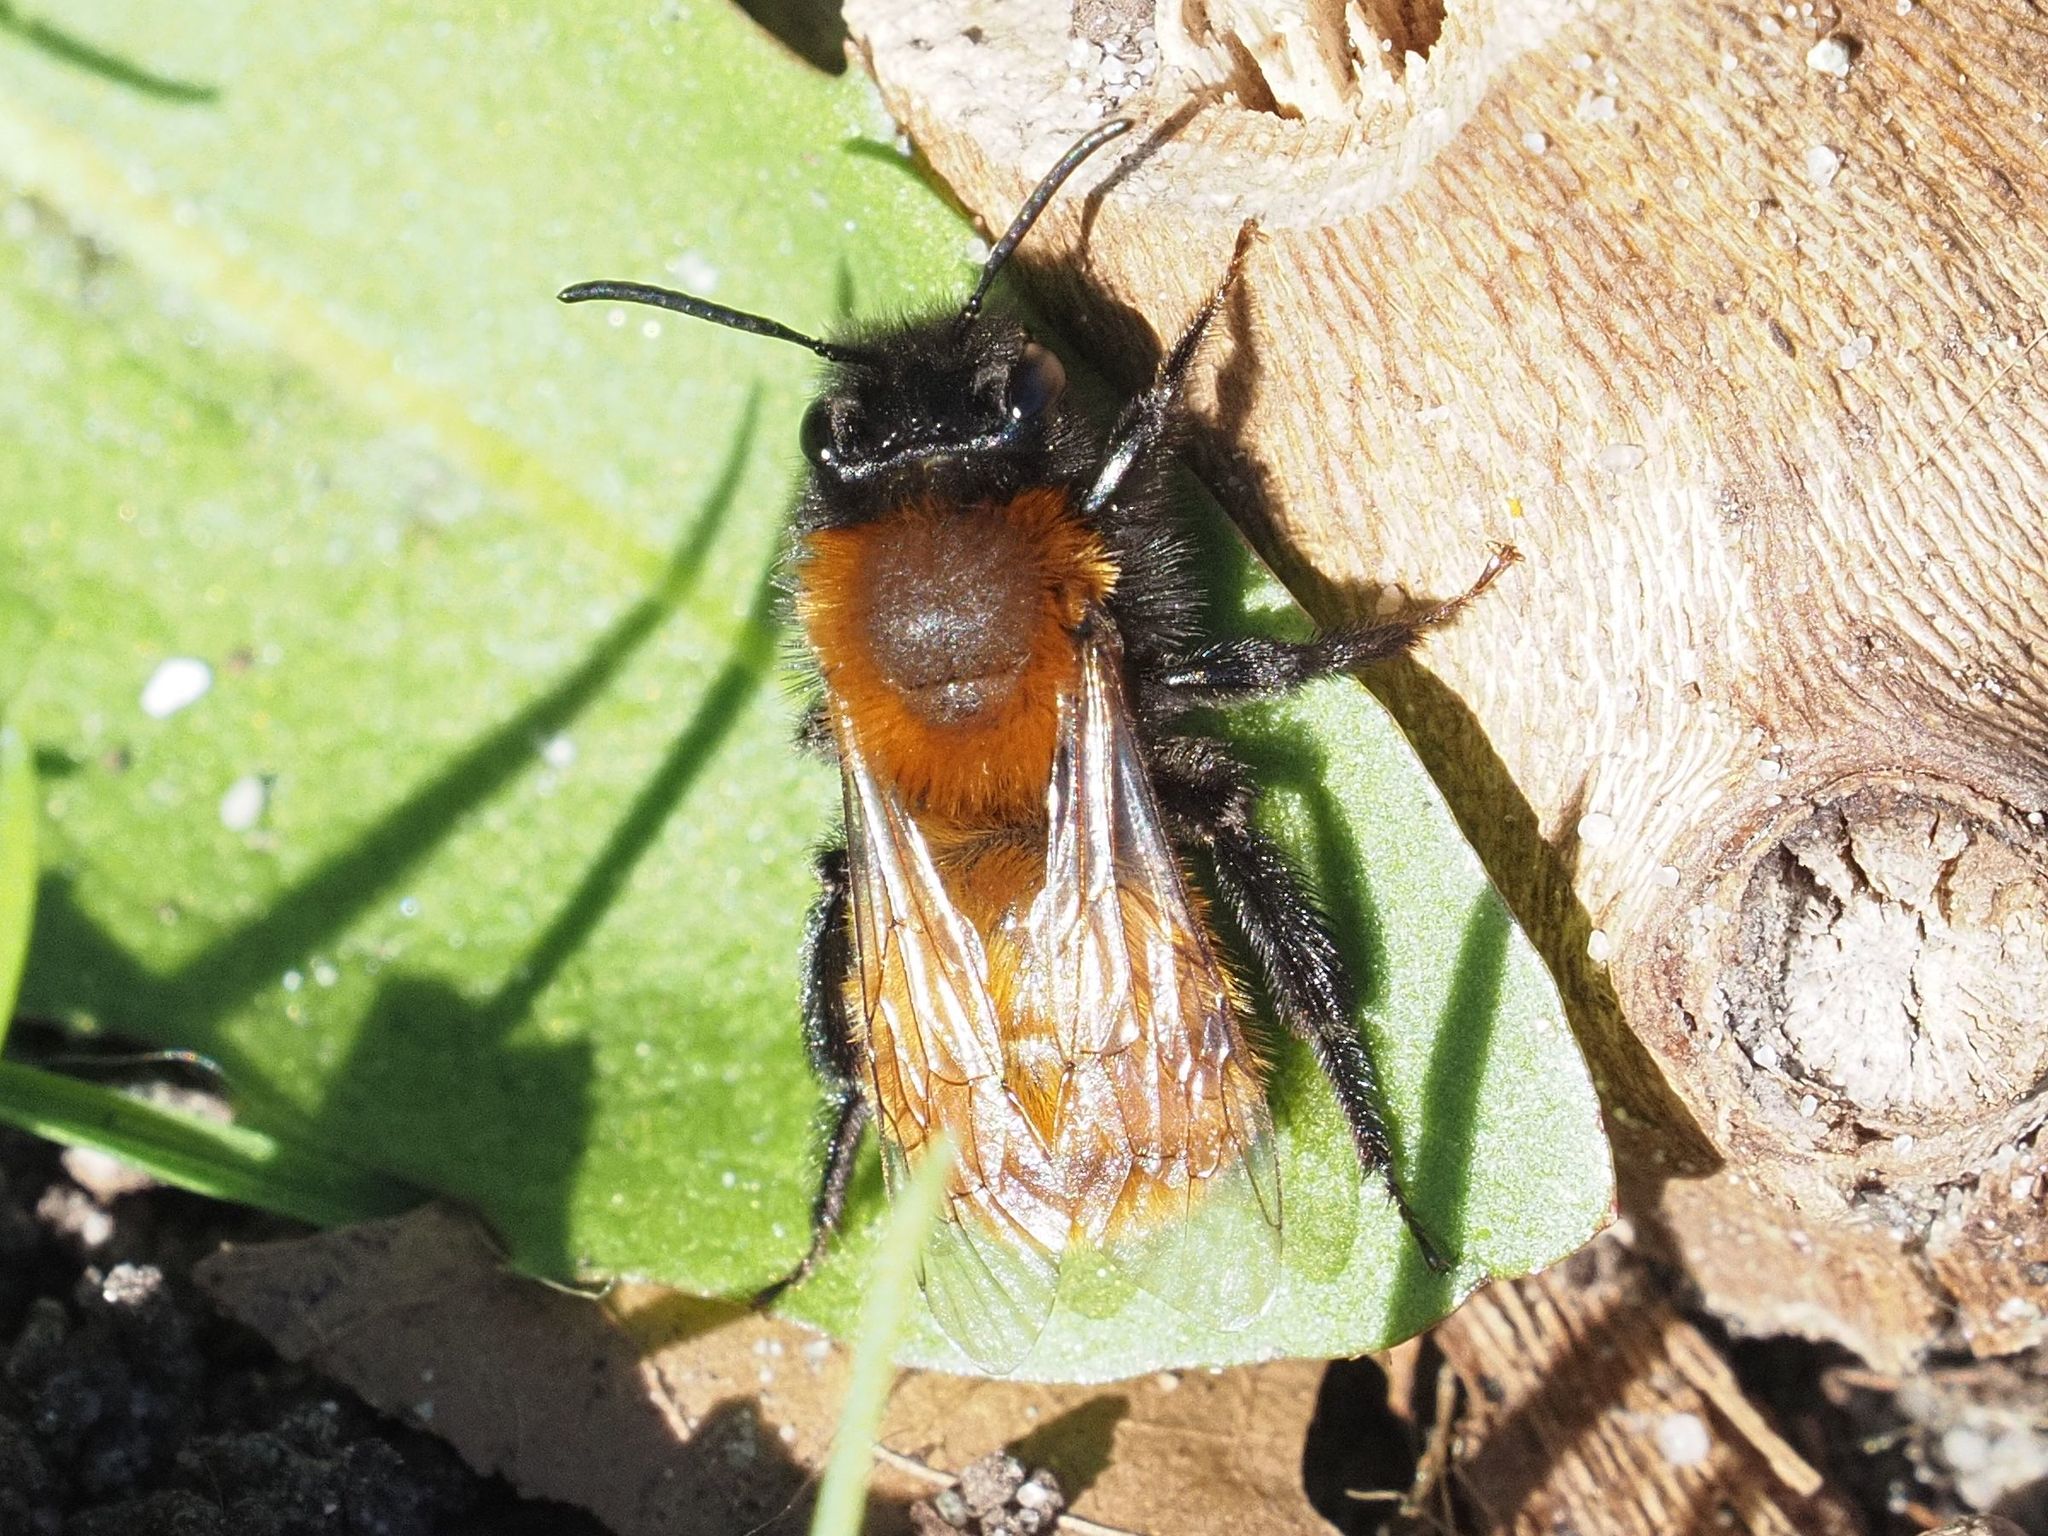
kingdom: Animalia
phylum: Arthropoda
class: Insecta
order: Hymenoptera
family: Andrenidae
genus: Andrena
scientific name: Andrena fulva
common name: Tawny mining bee
